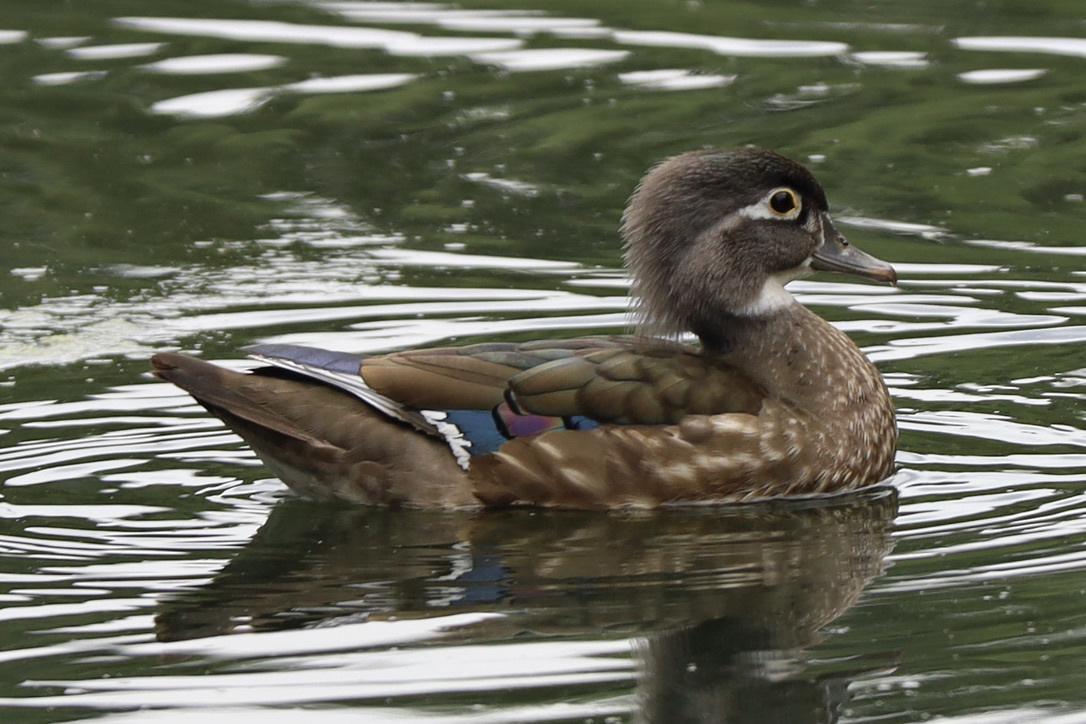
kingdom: Animalia
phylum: Chordata
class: Aves
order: Anseriformes
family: Anatidae
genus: Aix
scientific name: Aix sponsa
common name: Wood duck
